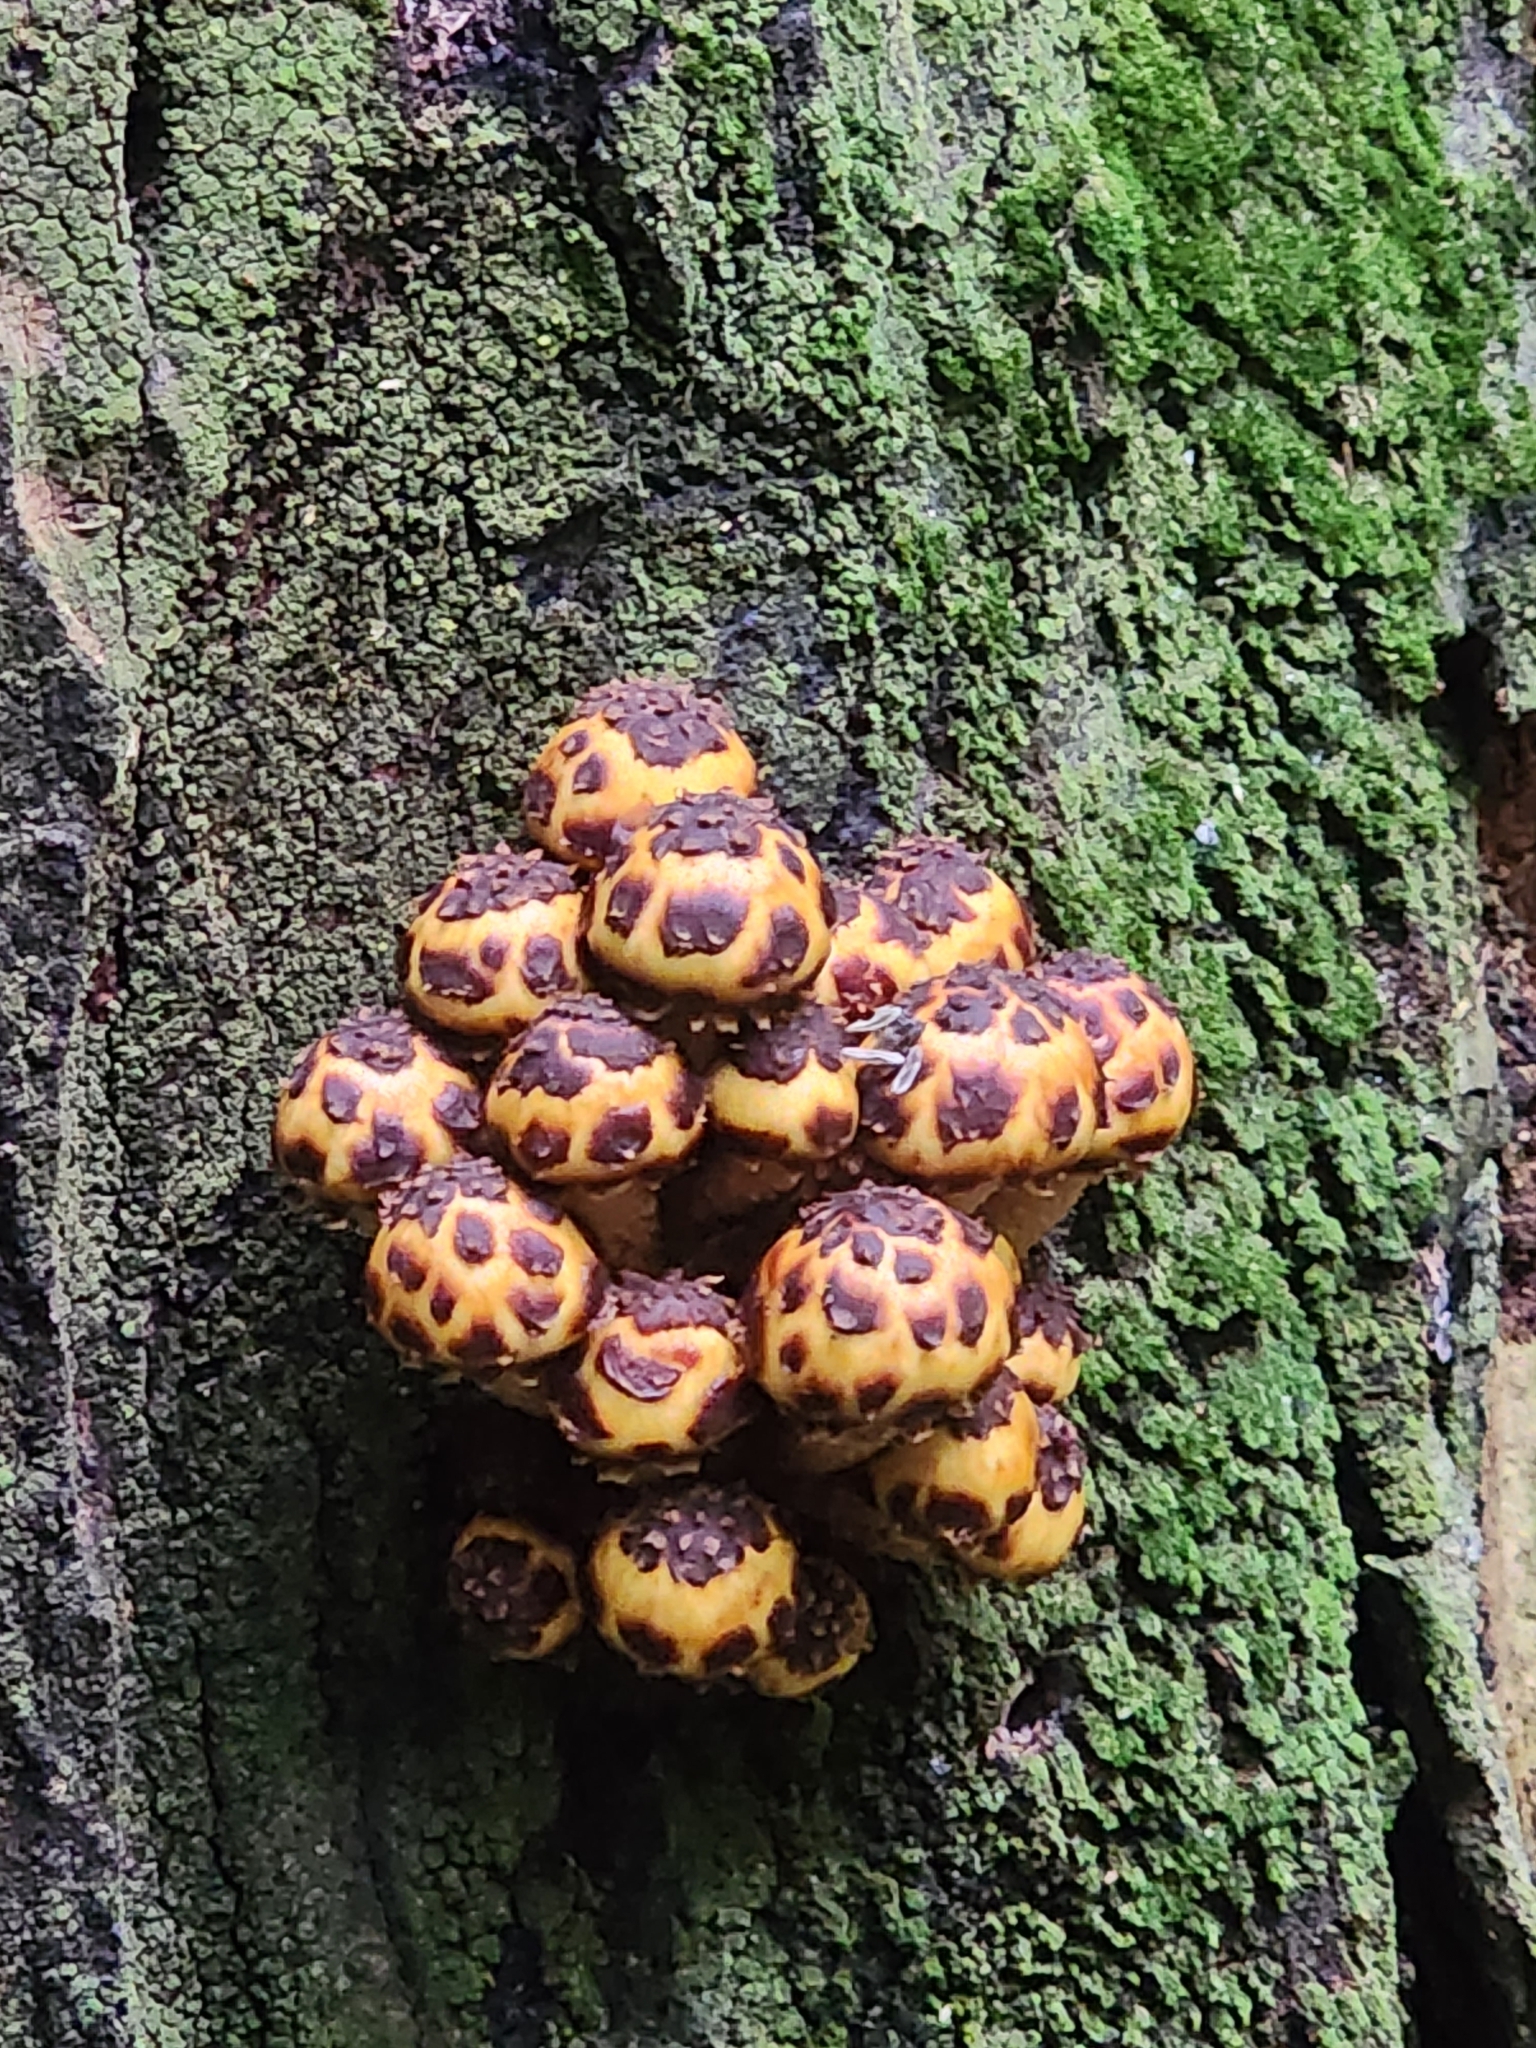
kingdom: Fungi
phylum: Basidiomycota
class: Agaricomycetes
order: Agaricales
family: Strophariaceae
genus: Pholiota
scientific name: Pholiota glutinosa
